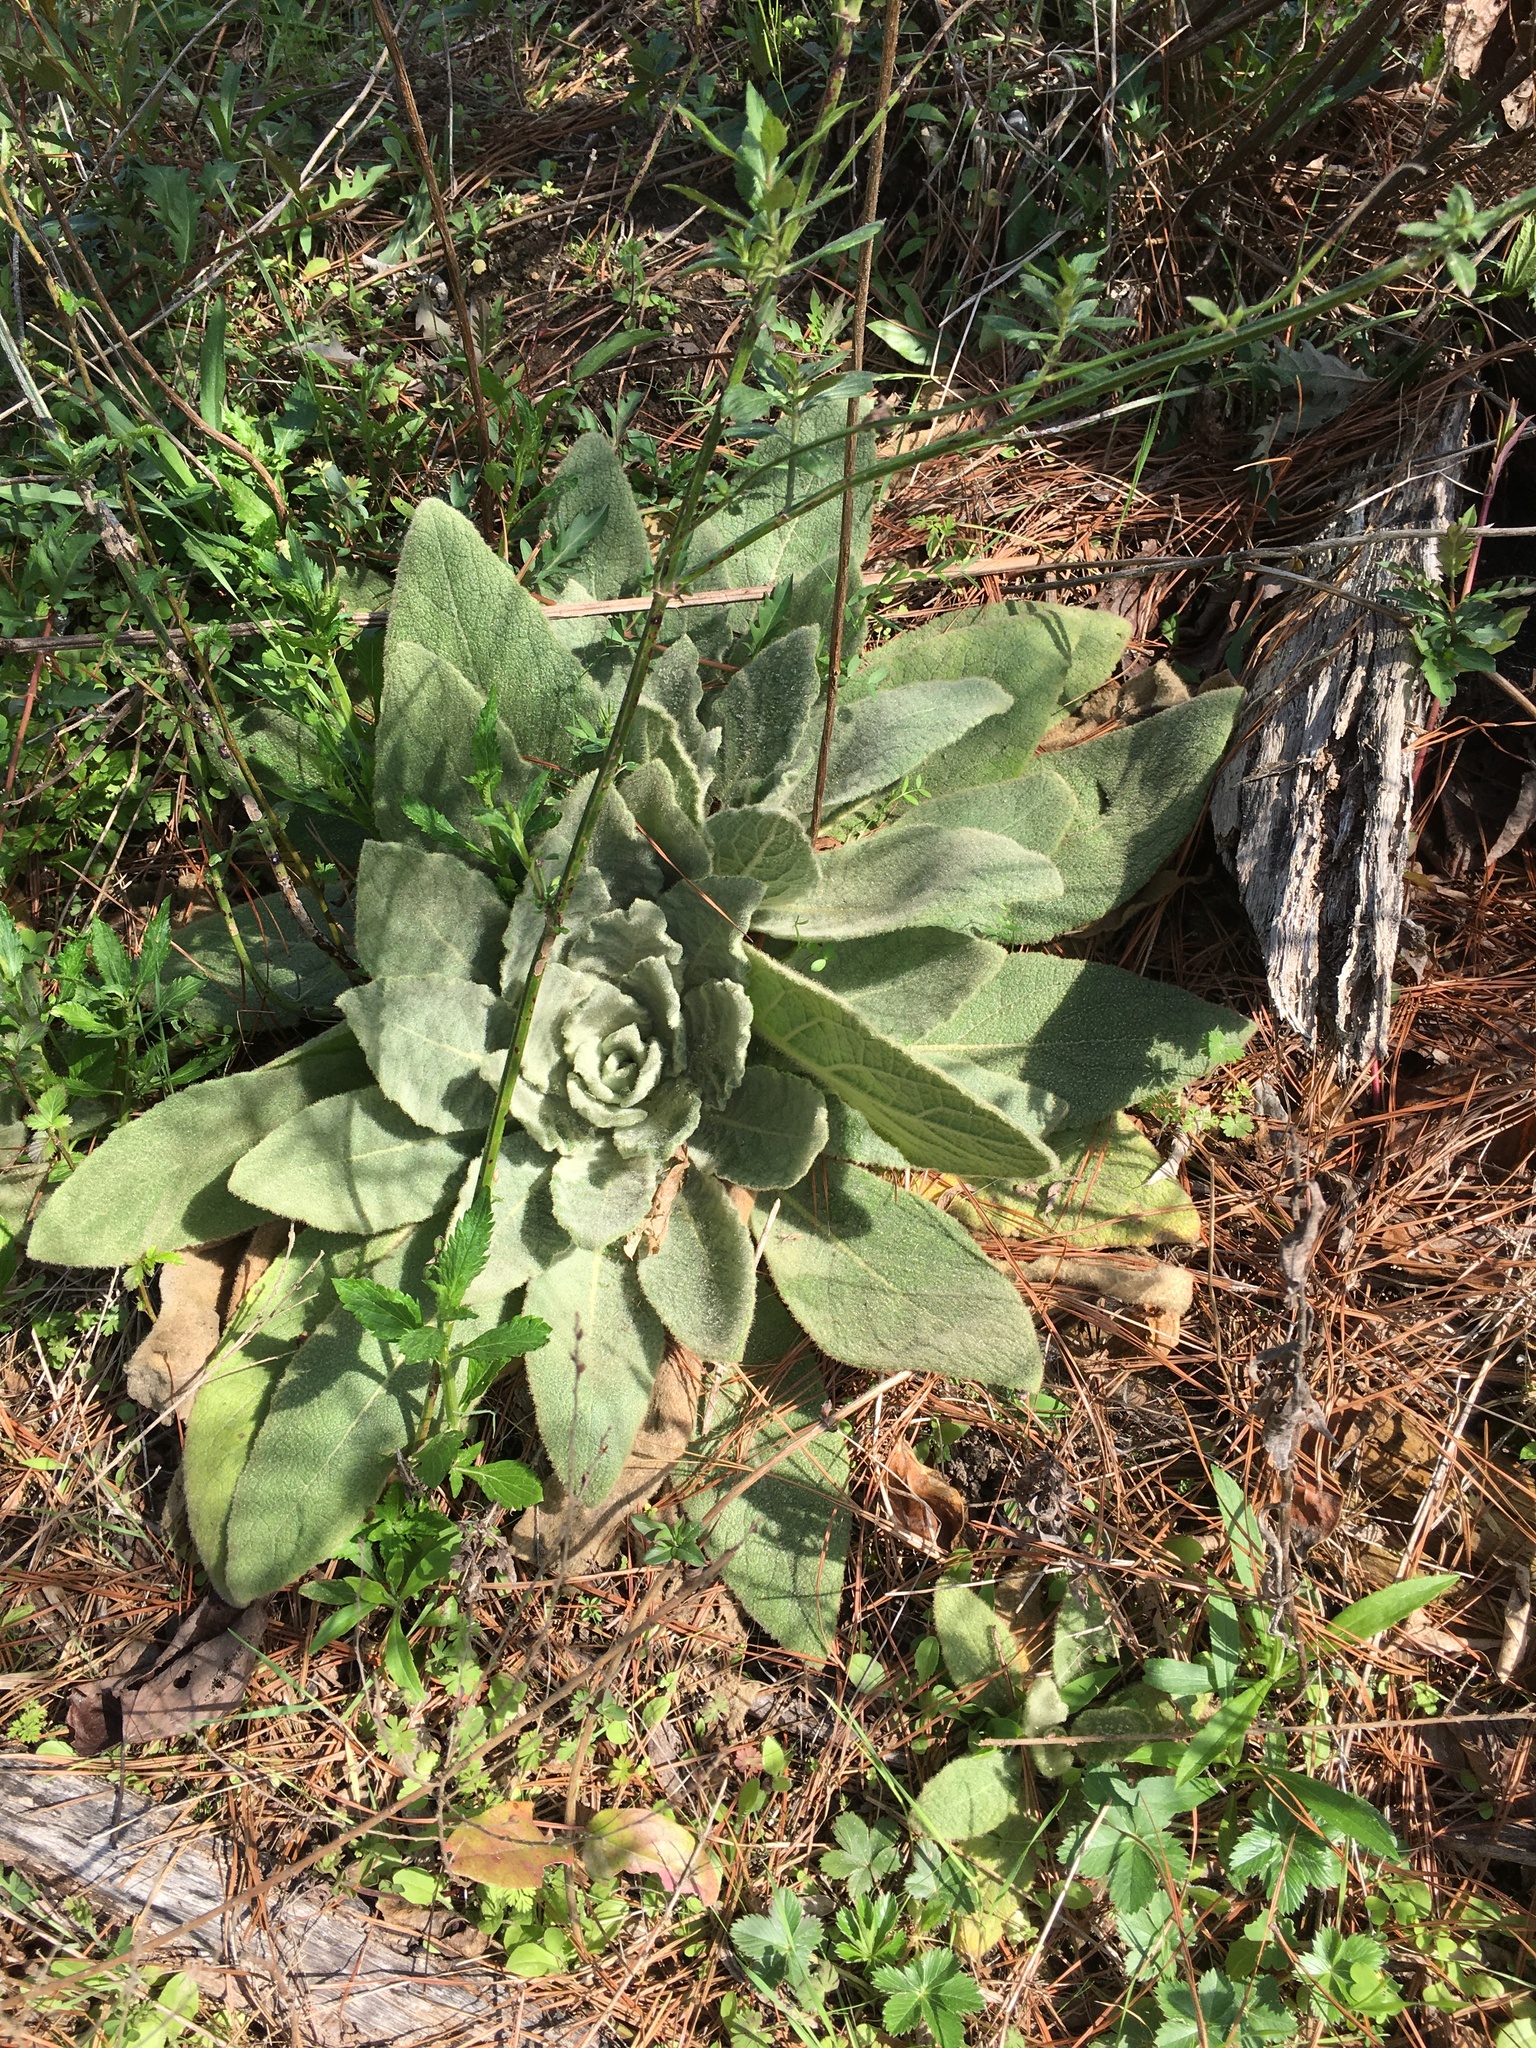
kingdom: Plantae
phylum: Tracheophyta
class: Magnoliopsida
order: Lamiales
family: Scrophulariaceae
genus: Verbascum
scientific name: Verbascum thapsus
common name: Common mullein
